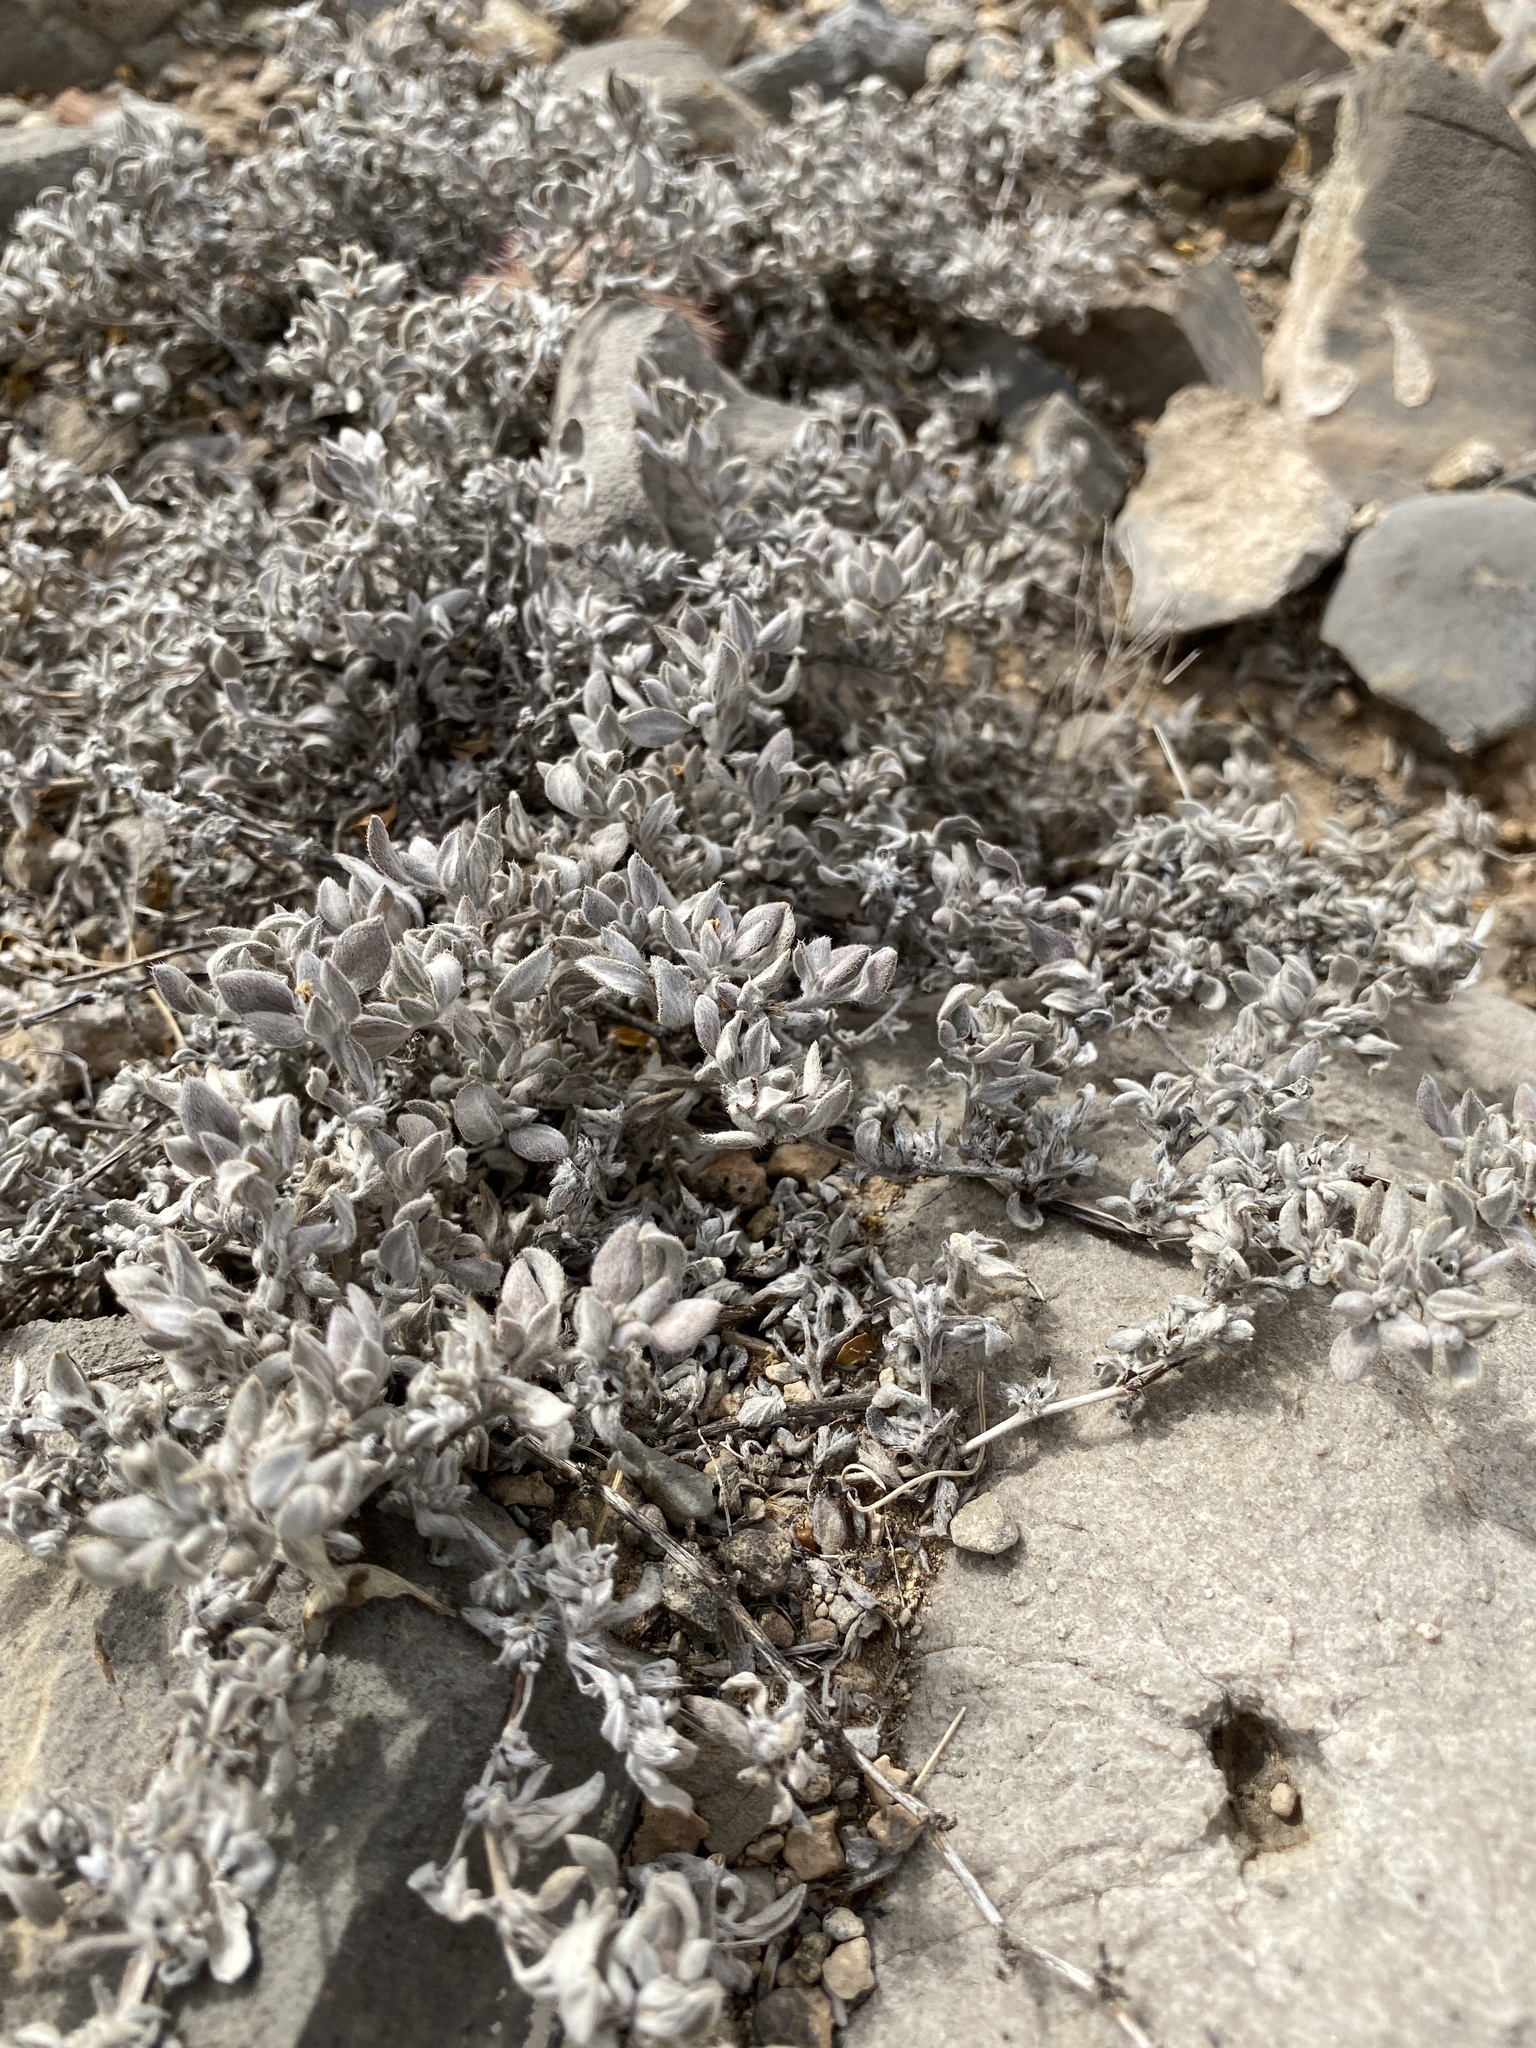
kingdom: Plantae
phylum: Tracheophyta
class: Magnoliopsida
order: Boraginales
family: Ehretiaceae
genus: Tiquilia
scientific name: Tiquilia canescens
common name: Hairy tiquilia
